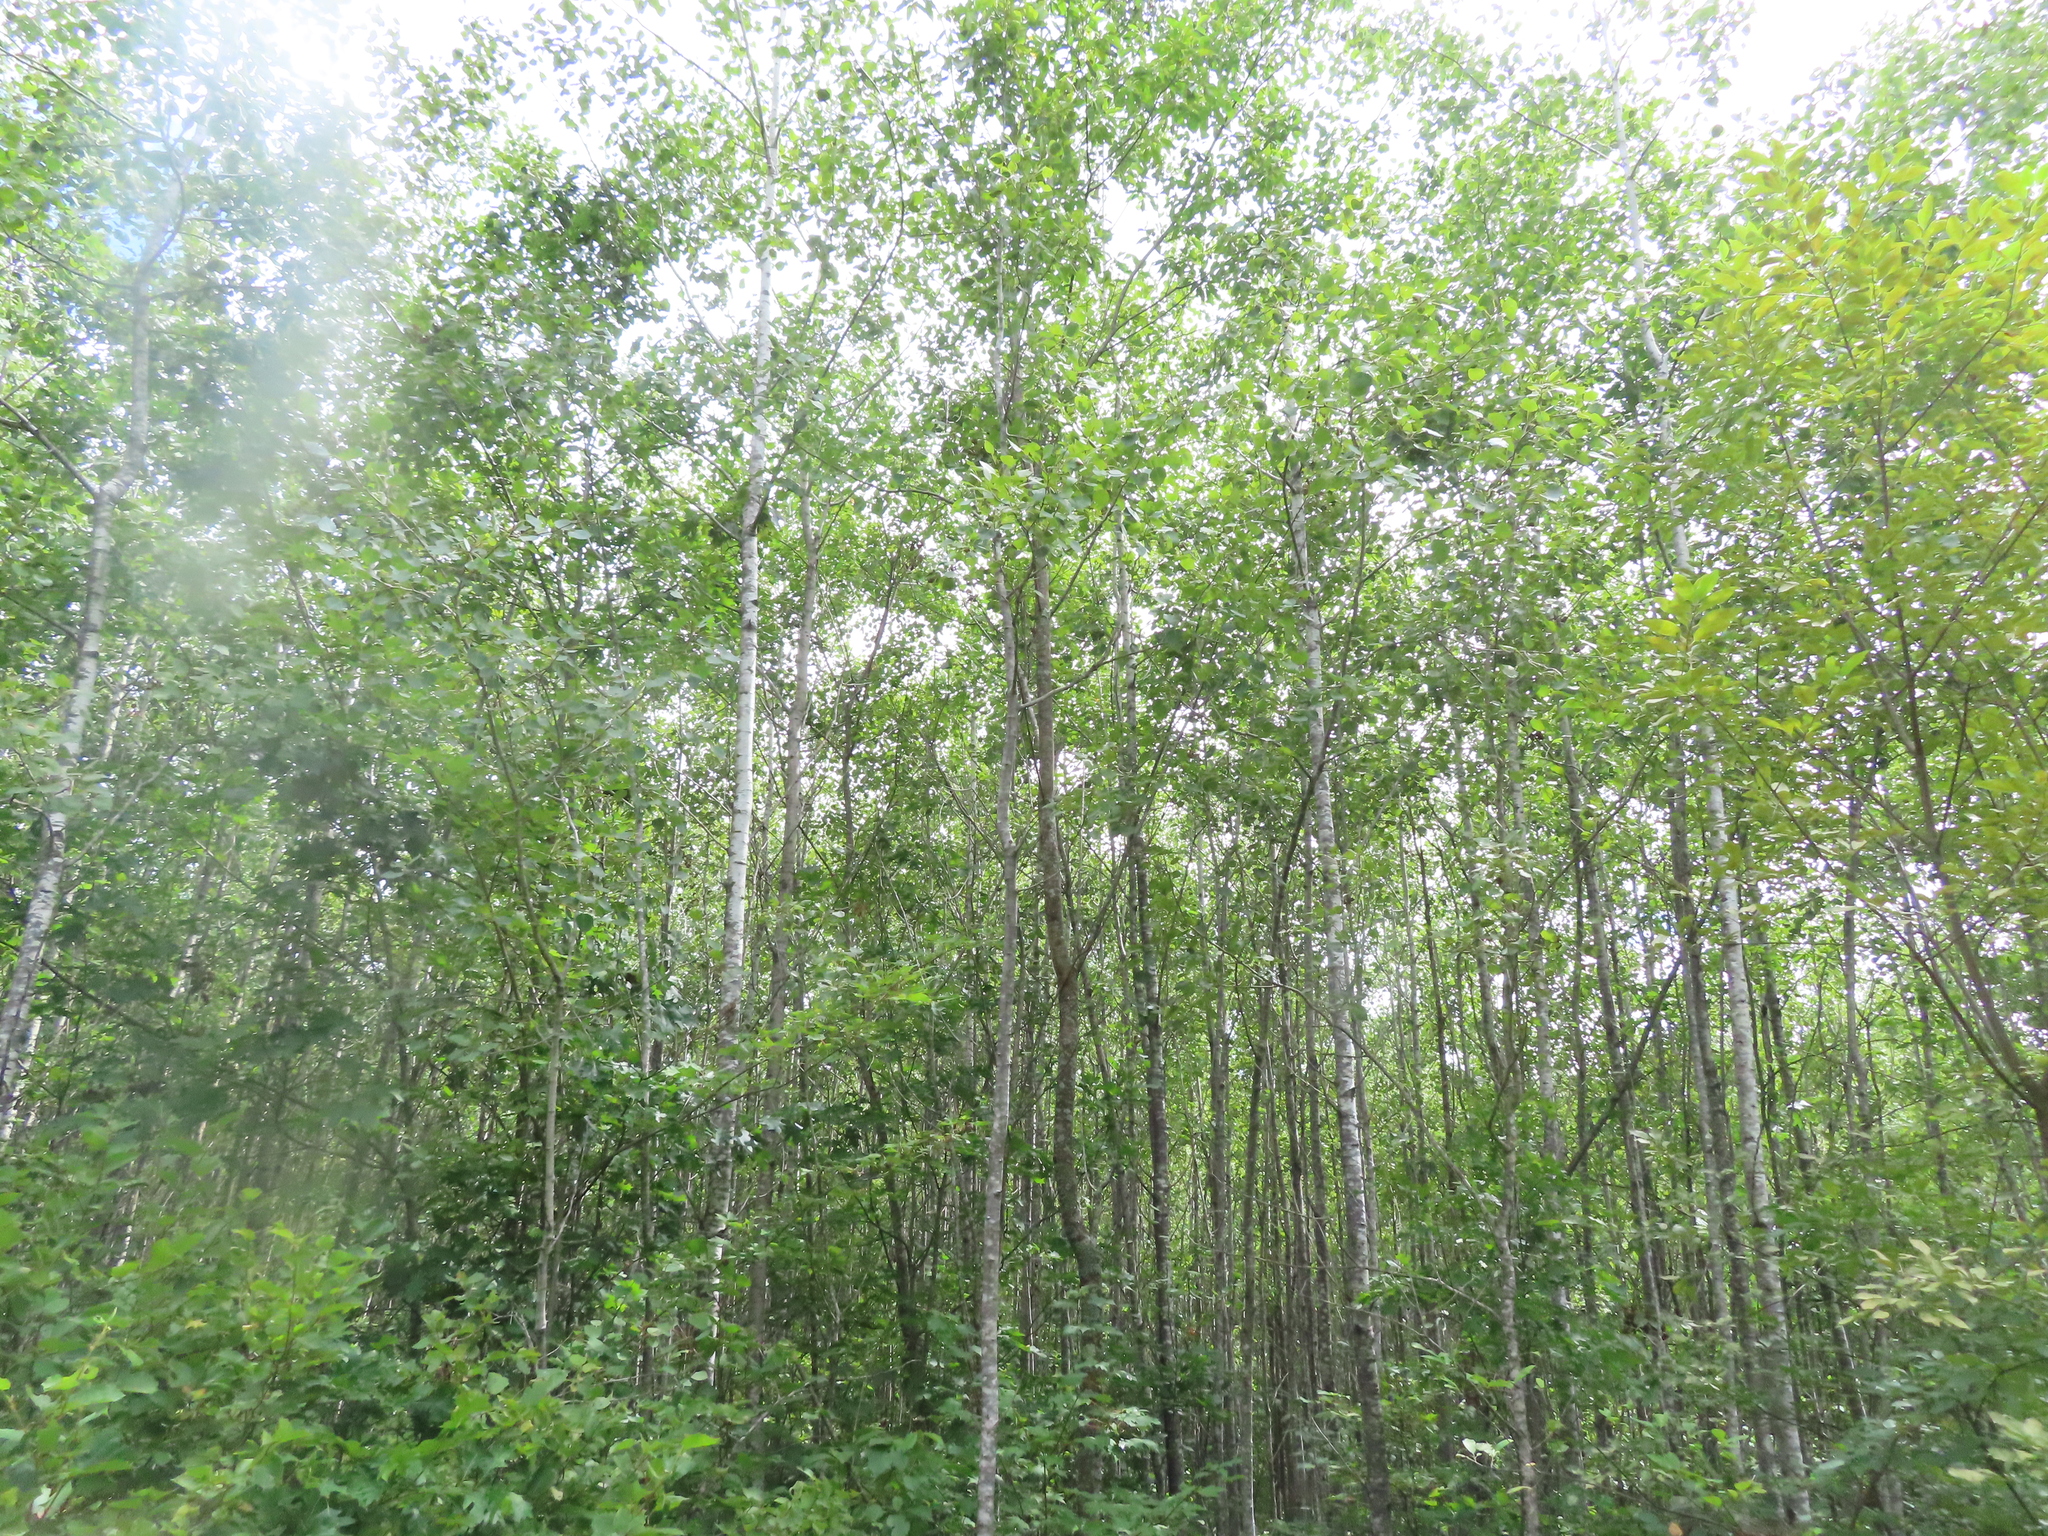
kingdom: Plantae
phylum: Tracheophyta
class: Magnoliopsida
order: Malpighiales
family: Salicaceae
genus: Populus
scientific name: Populus tremuloides
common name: Quaking aspen
